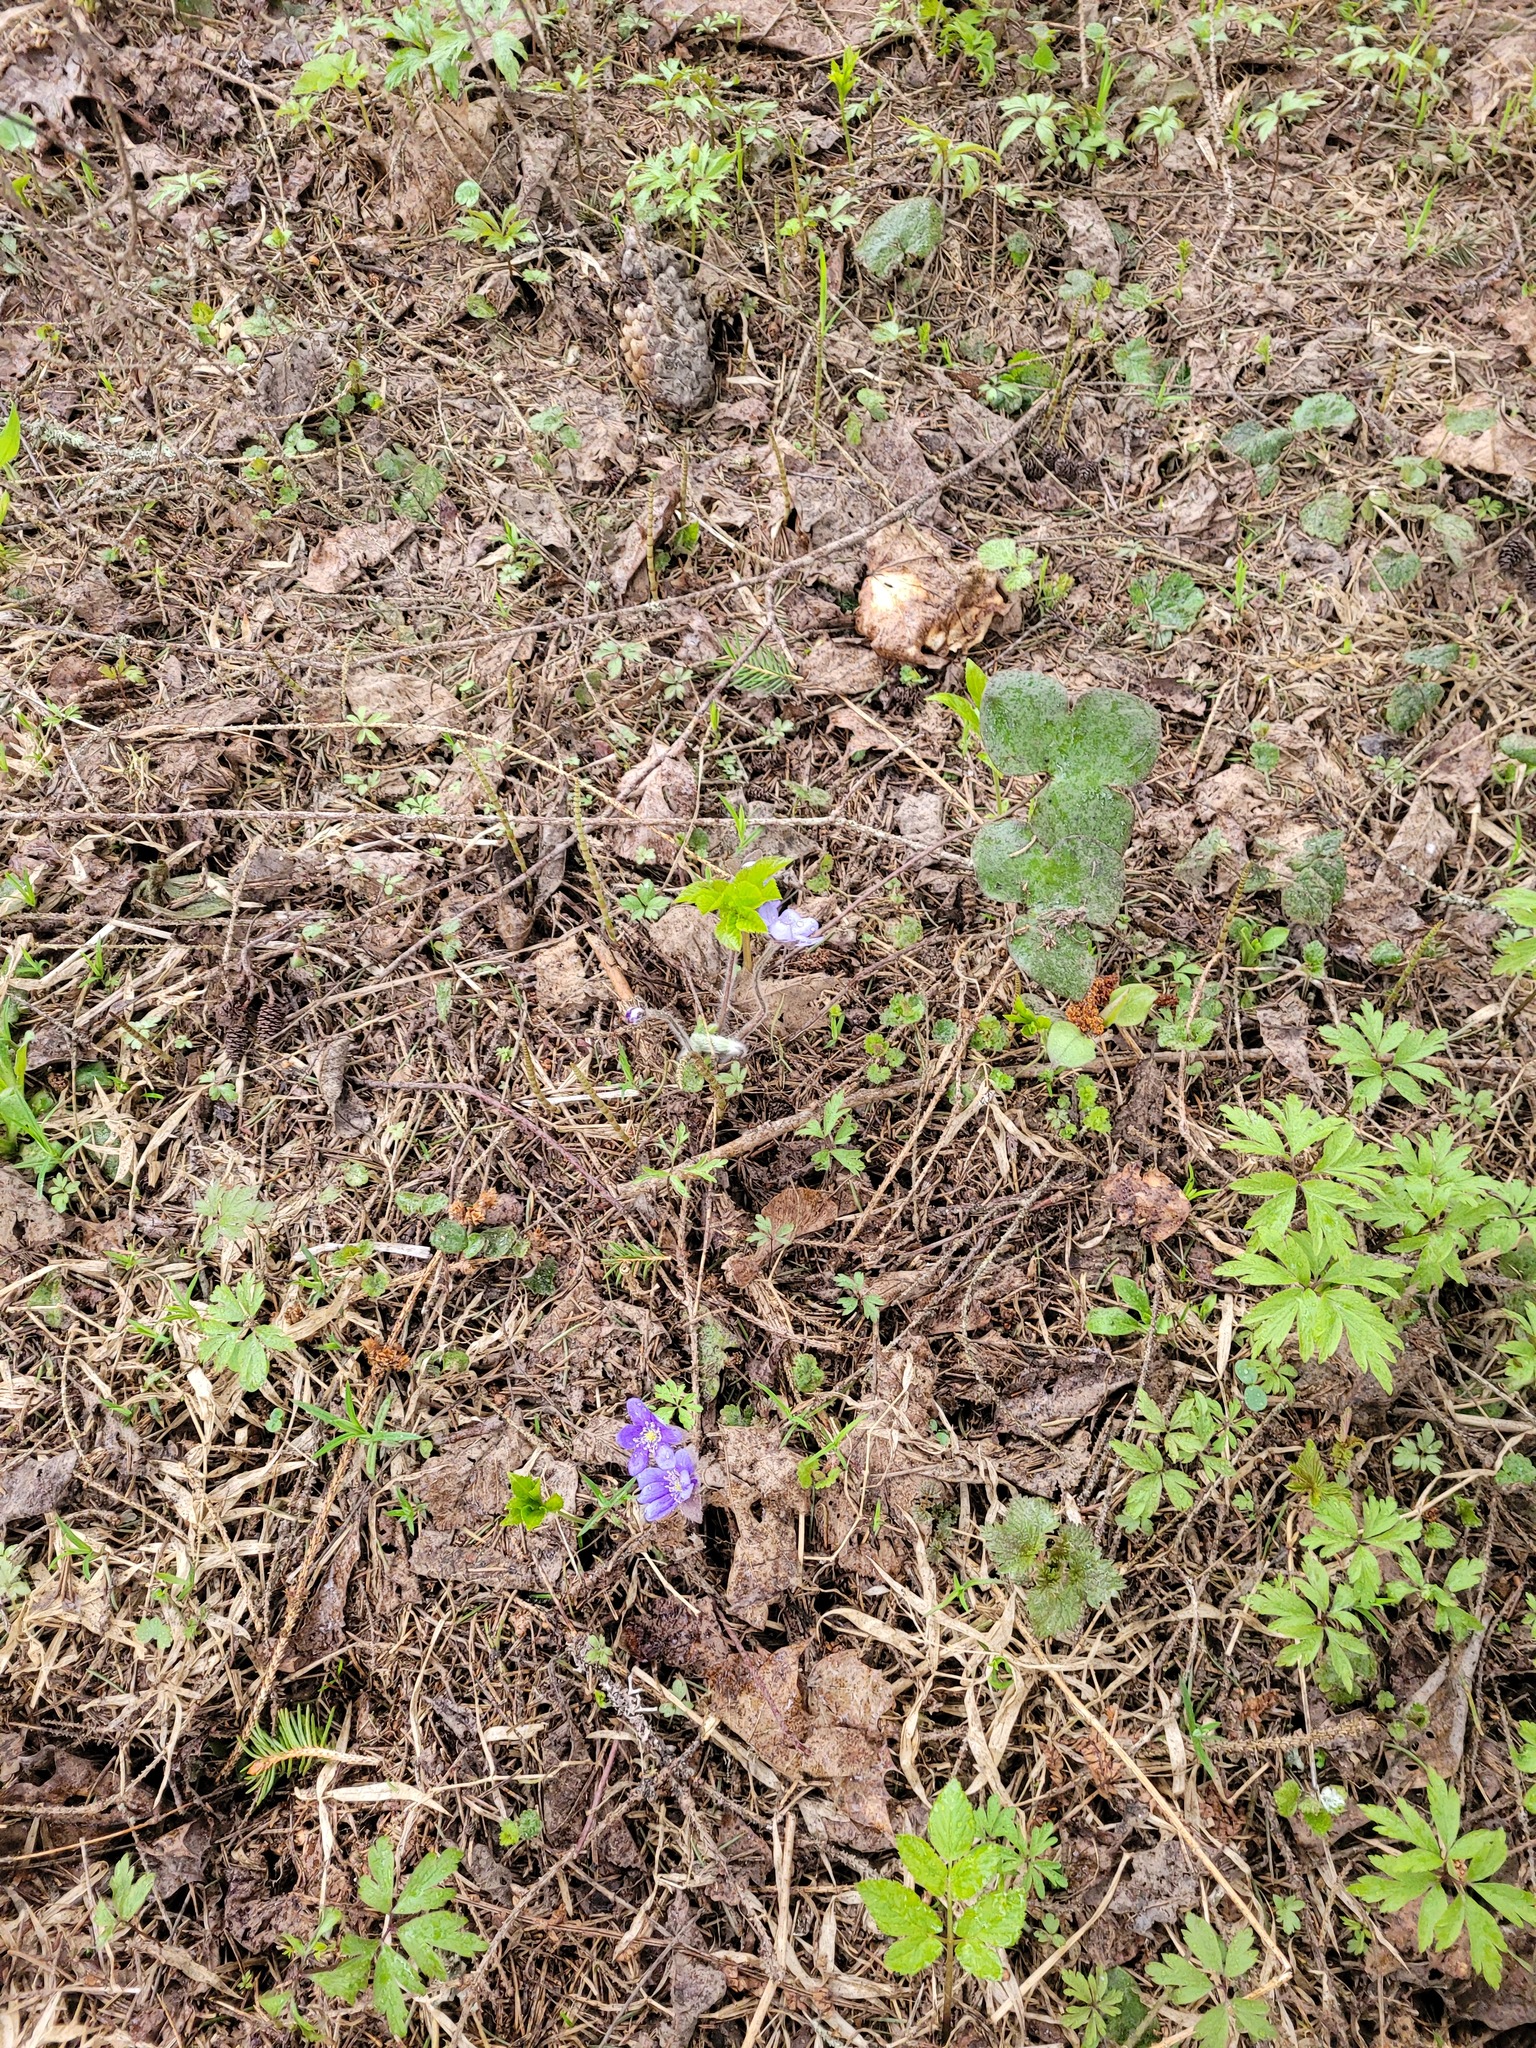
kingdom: Plantae
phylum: Tracheophyta
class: Magnoliopsida
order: Ranunculales
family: Ranunculaceae
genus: Hepatica
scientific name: Hepatica nobilis
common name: Liverleaf
